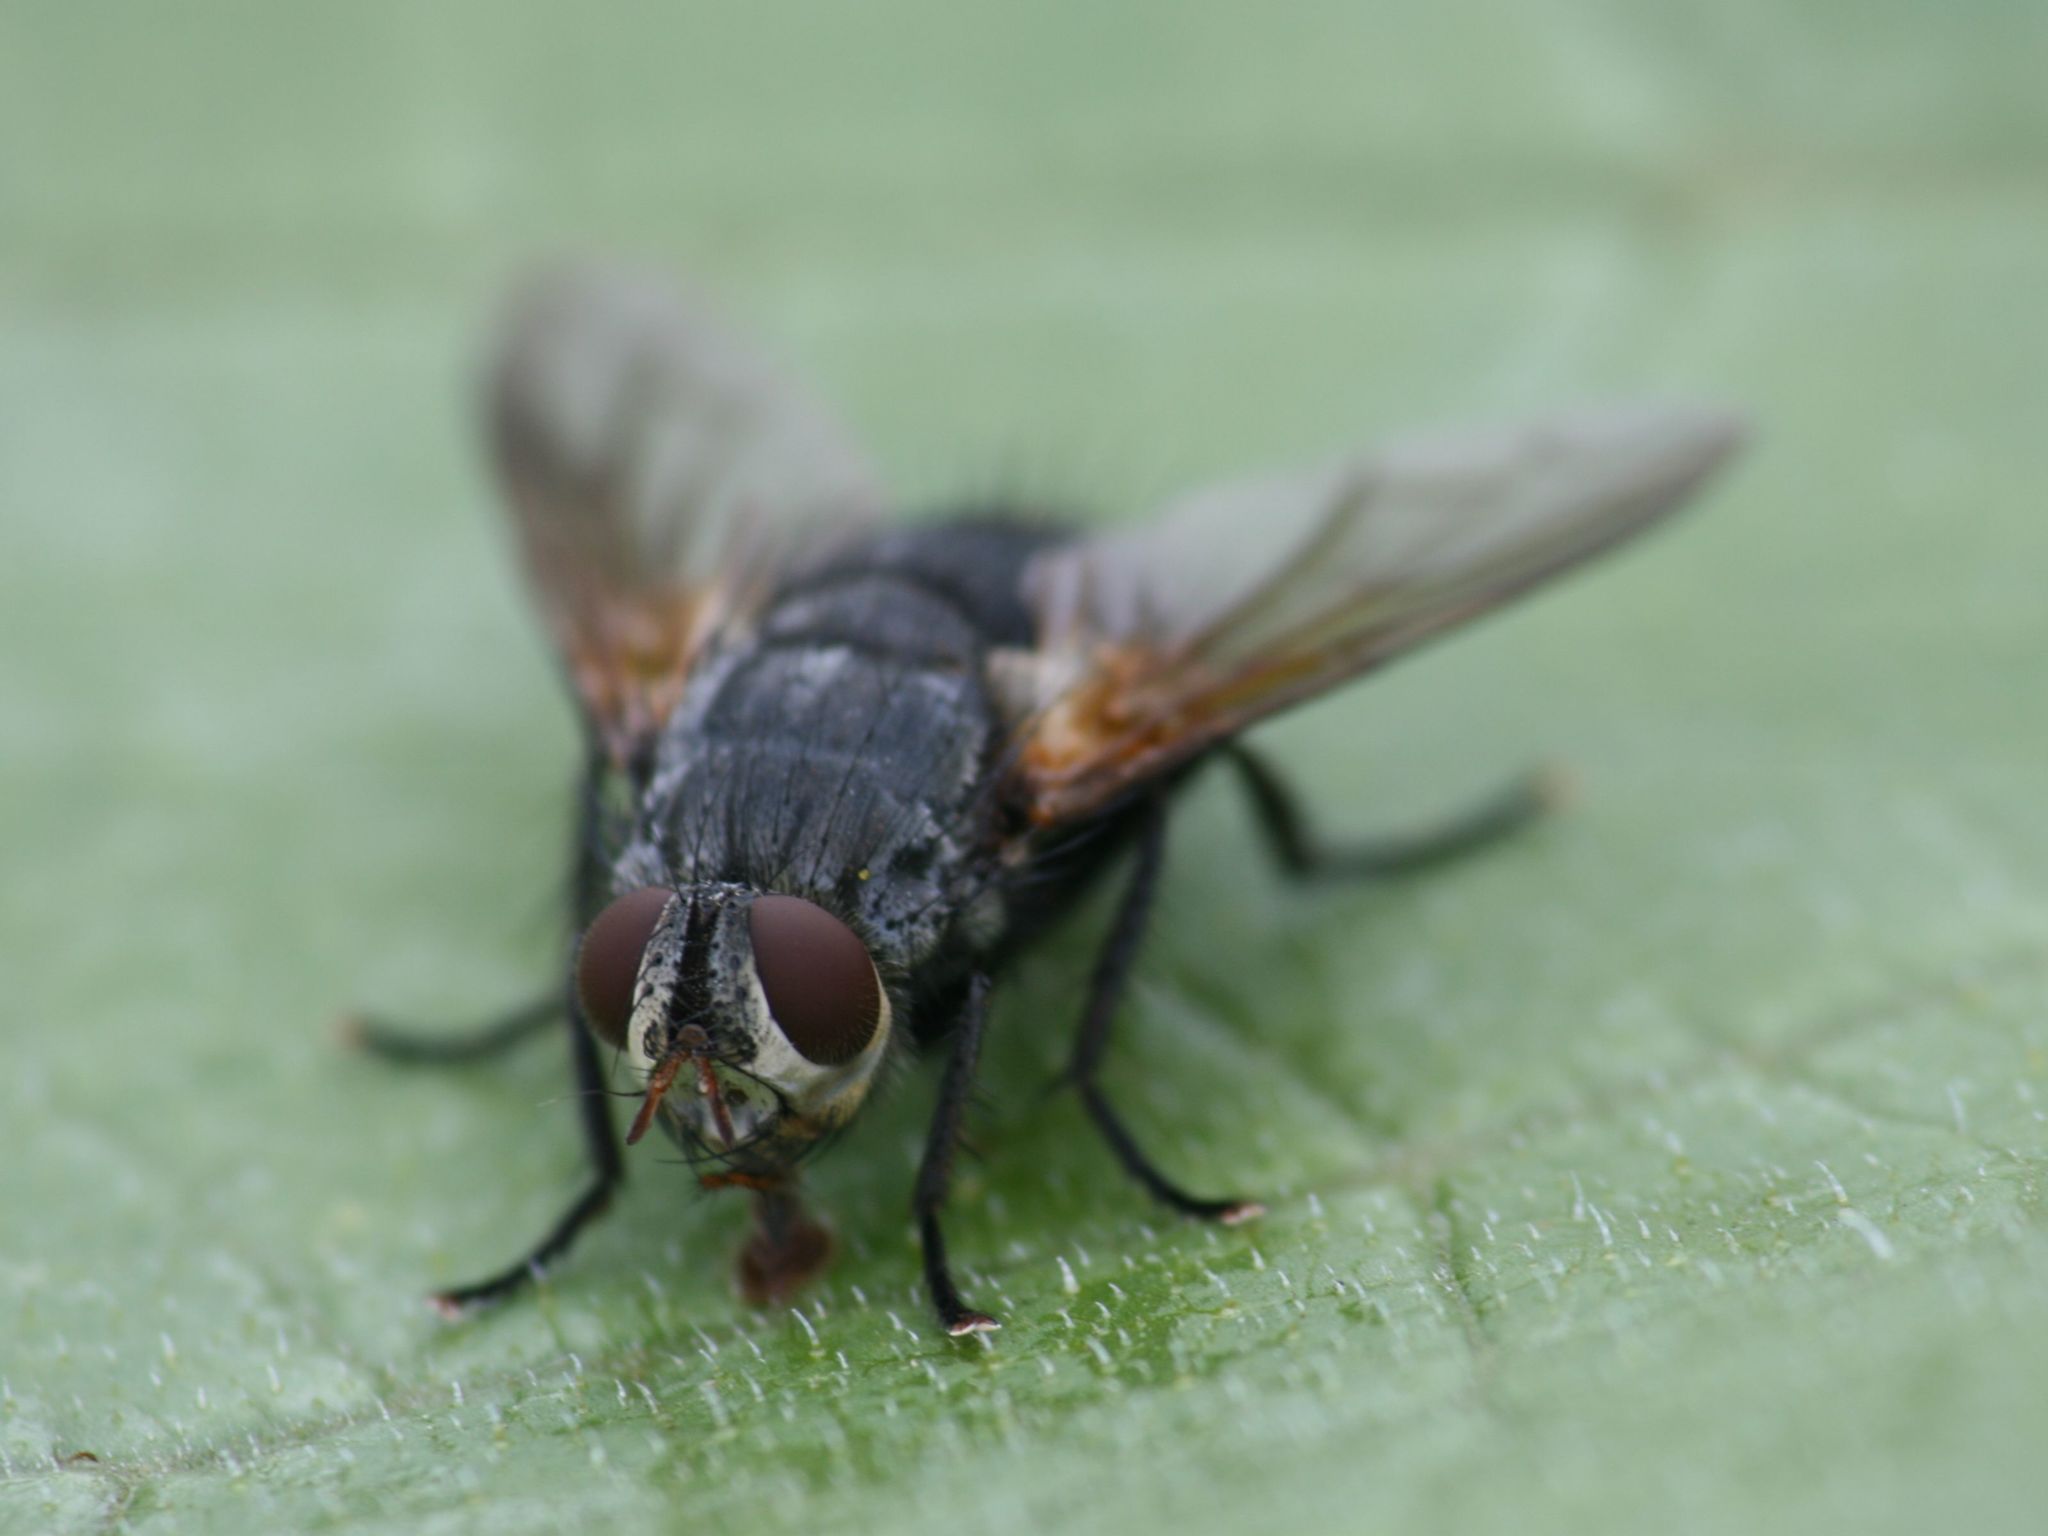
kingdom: Animalia
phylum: Arthropoda
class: Insecta
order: Diptera
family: Tachinidae
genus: Nemoraea
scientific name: Nemoraea pellucida
